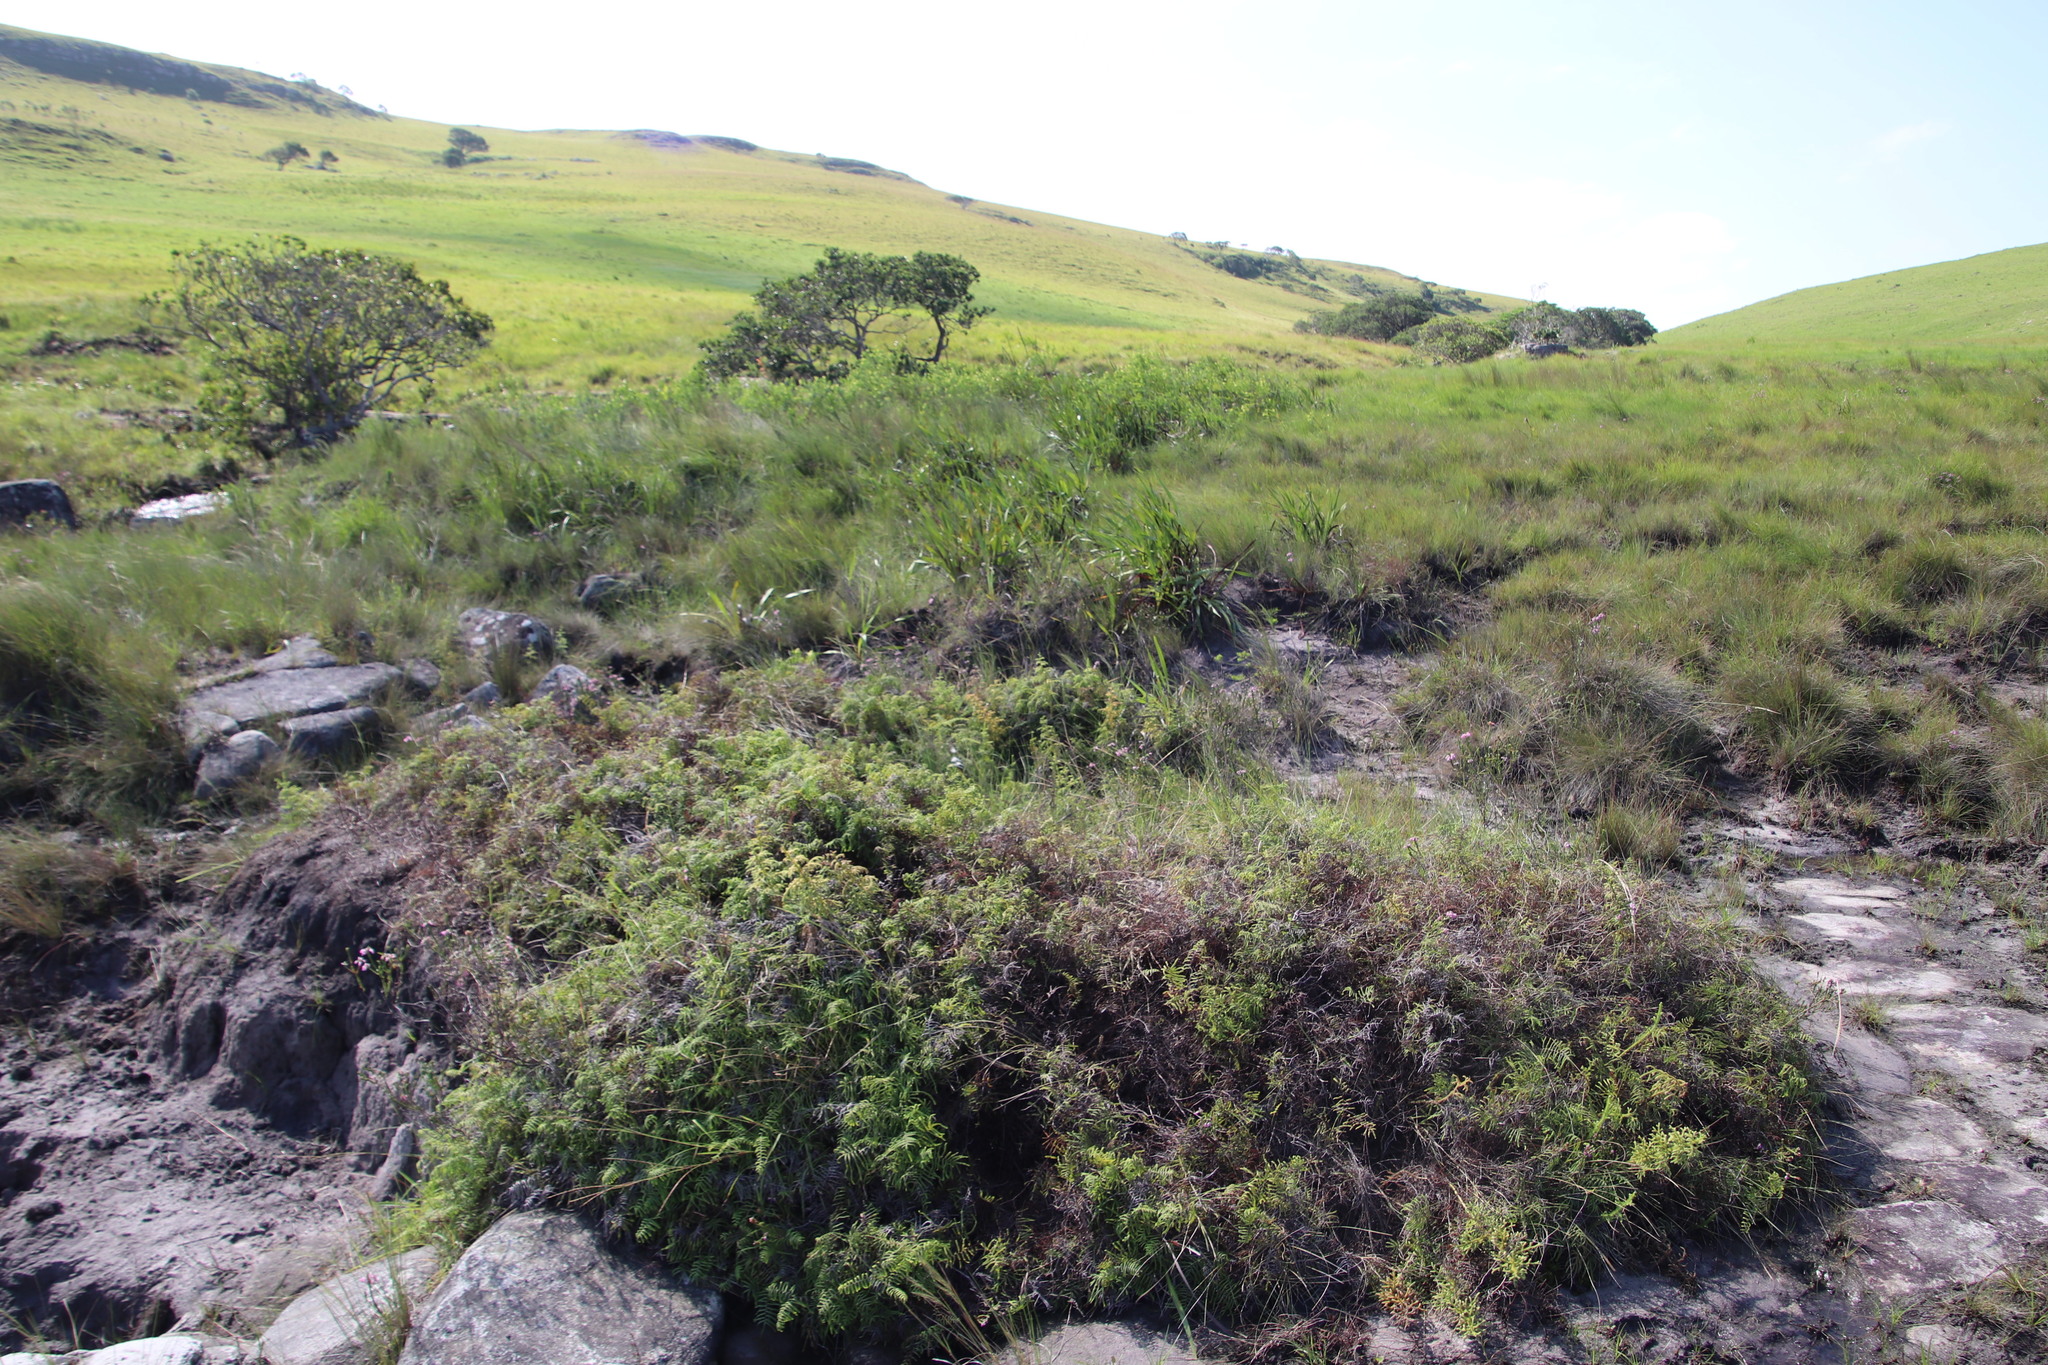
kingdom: Plantae
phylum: Tracheophyta
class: Polypodiopsida
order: Gleicheniales
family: Gleicheniaceae
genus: Gleichenia
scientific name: Gleichenia polypodioides
